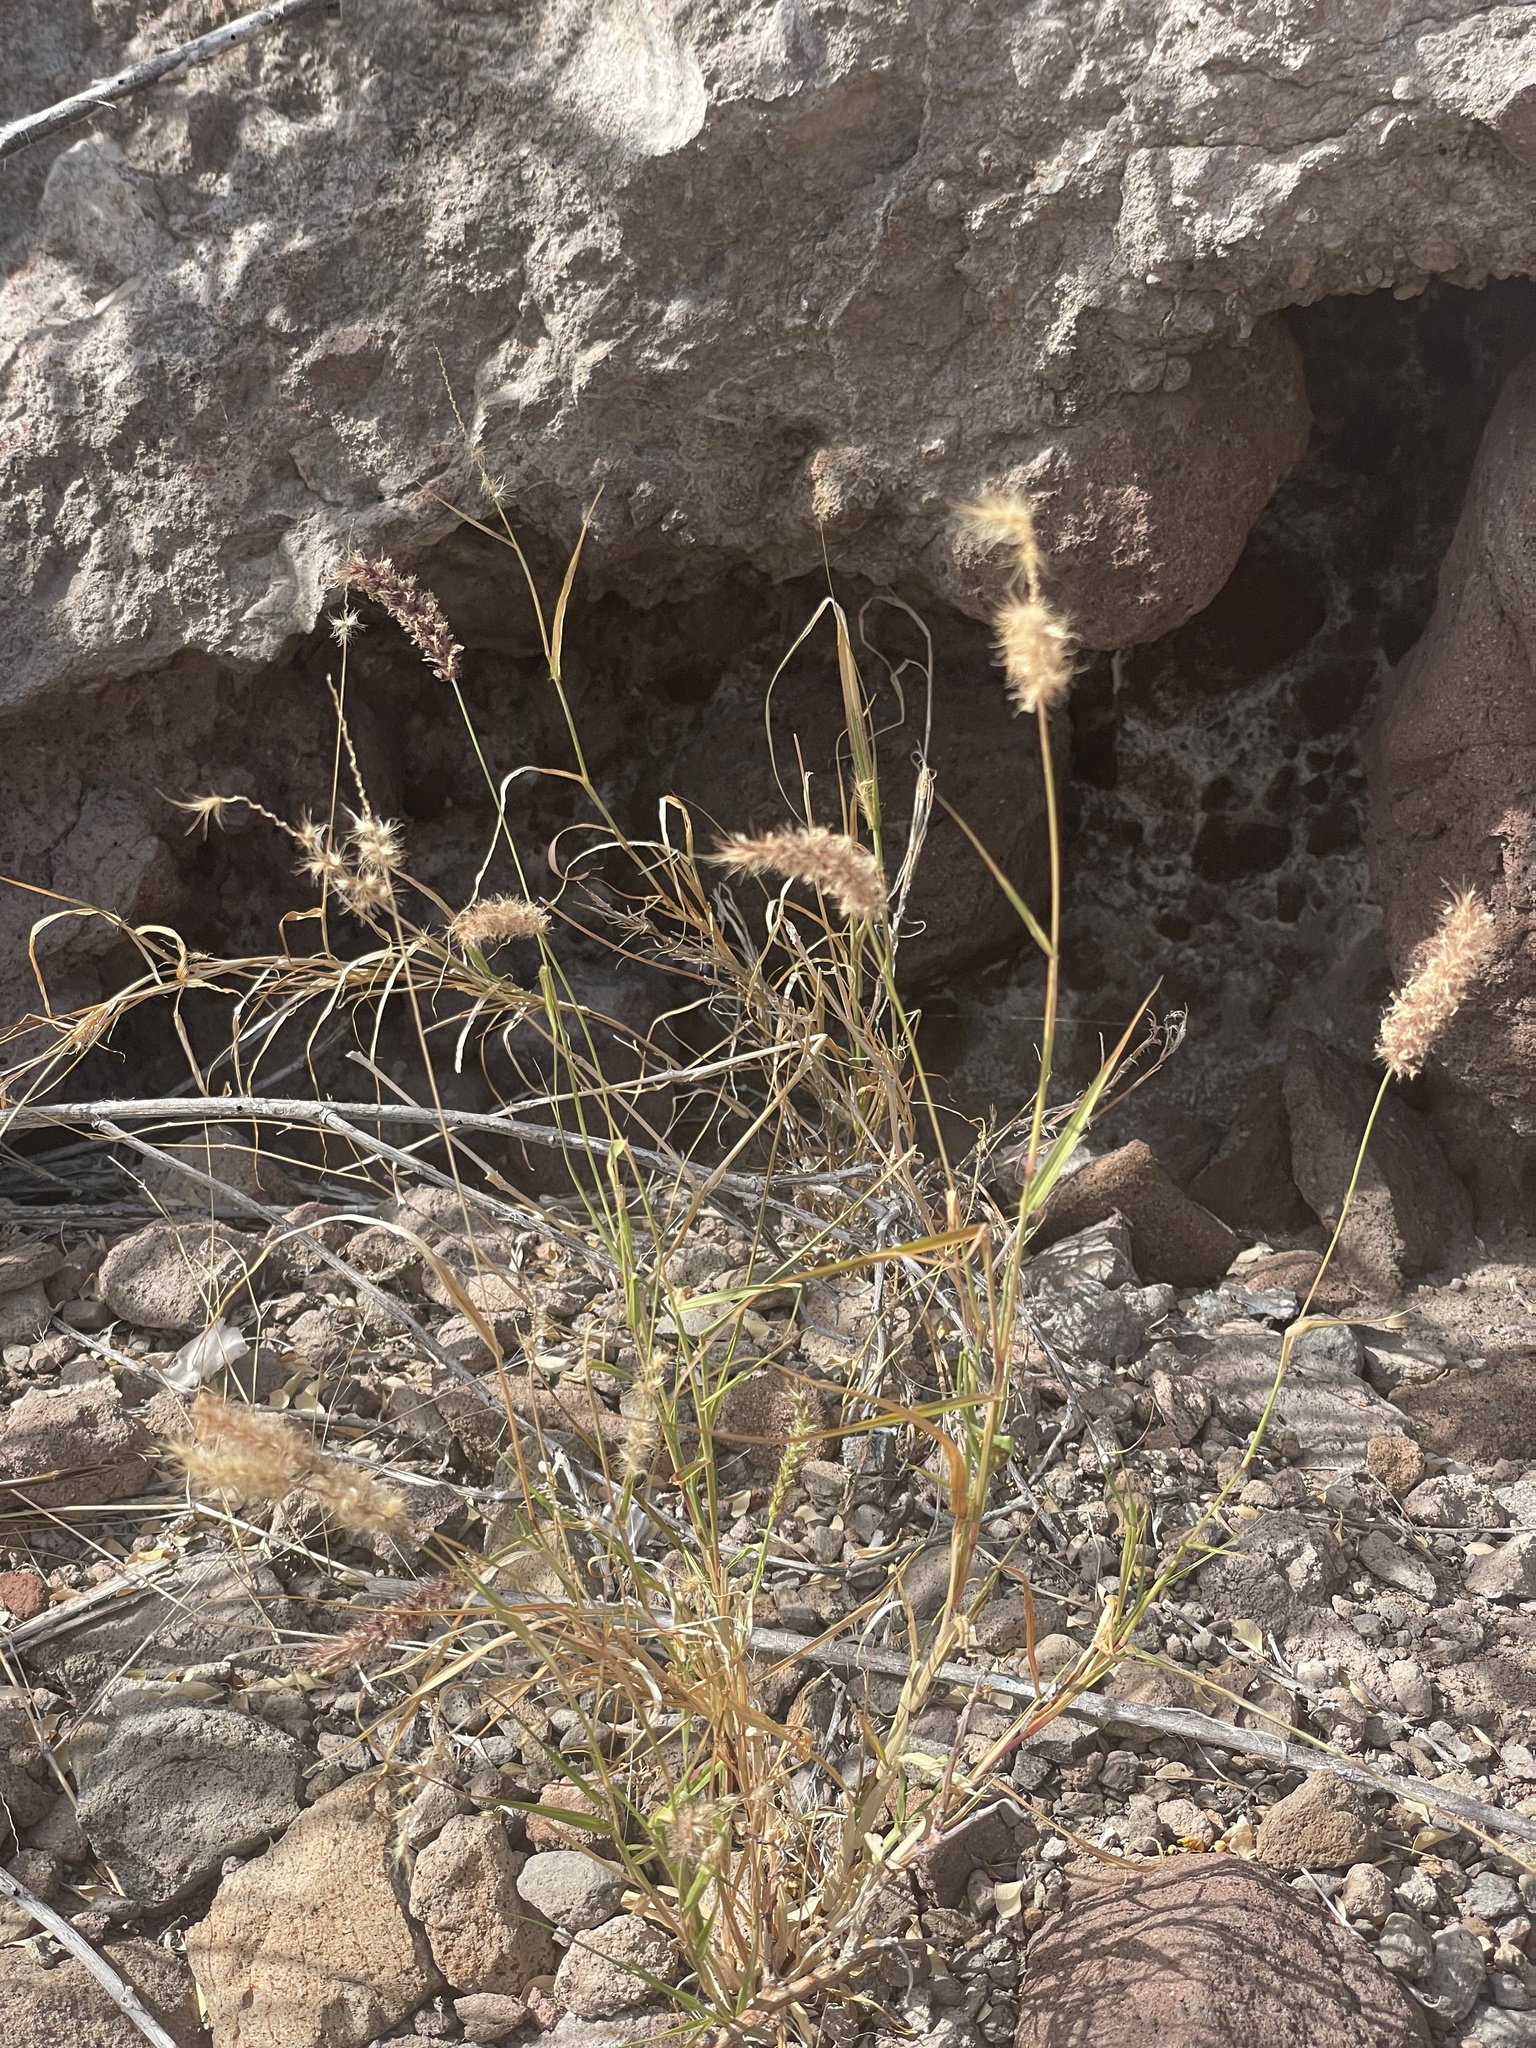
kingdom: Plantae
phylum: Tracheophyta
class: Liliopsida
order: Poales
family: Poaceae
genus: Cenchrus
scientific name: Cenchrus ciliaris
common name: Buffelgrass
